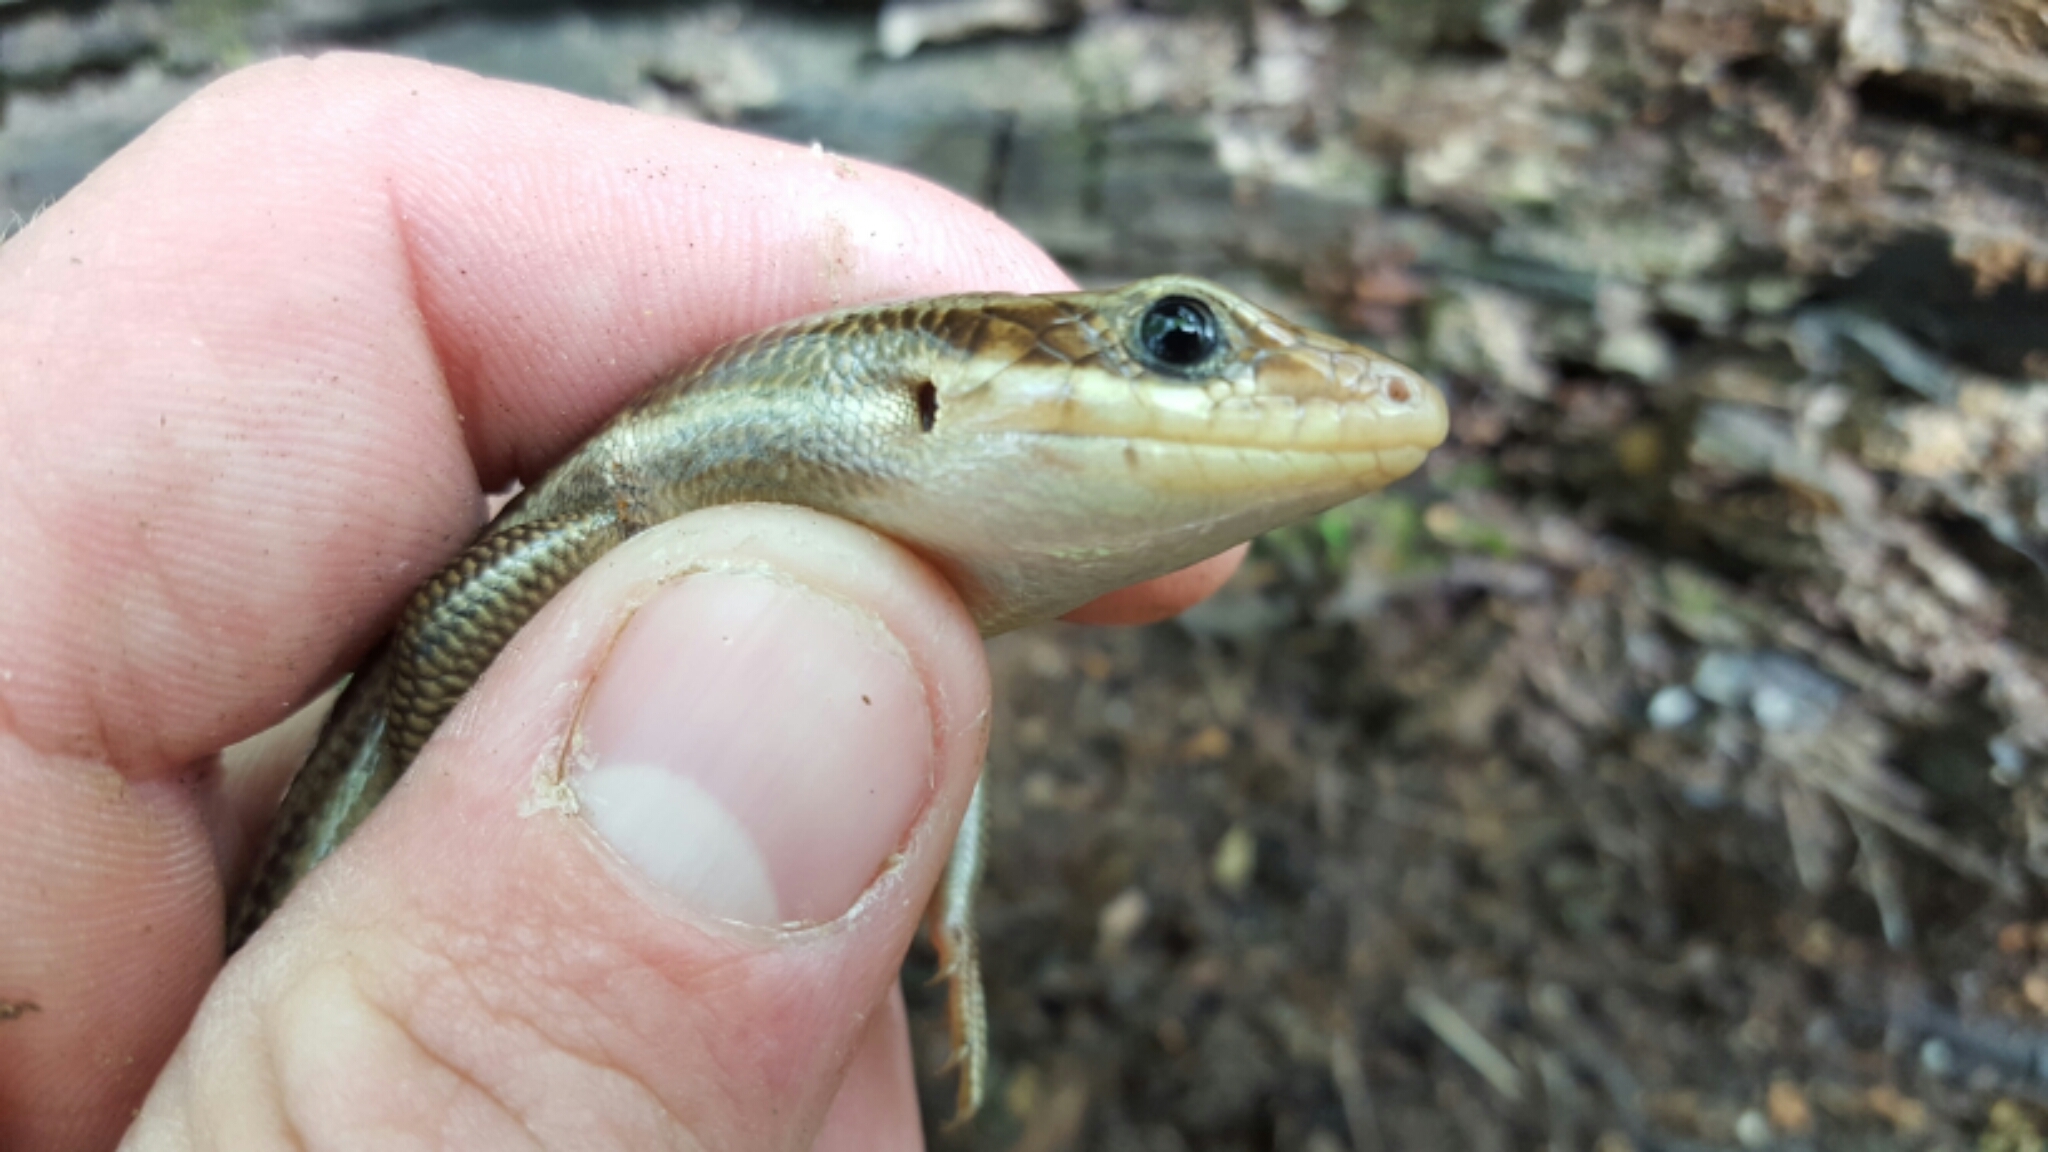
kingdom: Animalia
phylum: Chordata
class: Squamata
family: Scincidae
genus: Plestiodon
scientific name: Plestiodon laticeps
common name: Broadhead skink
